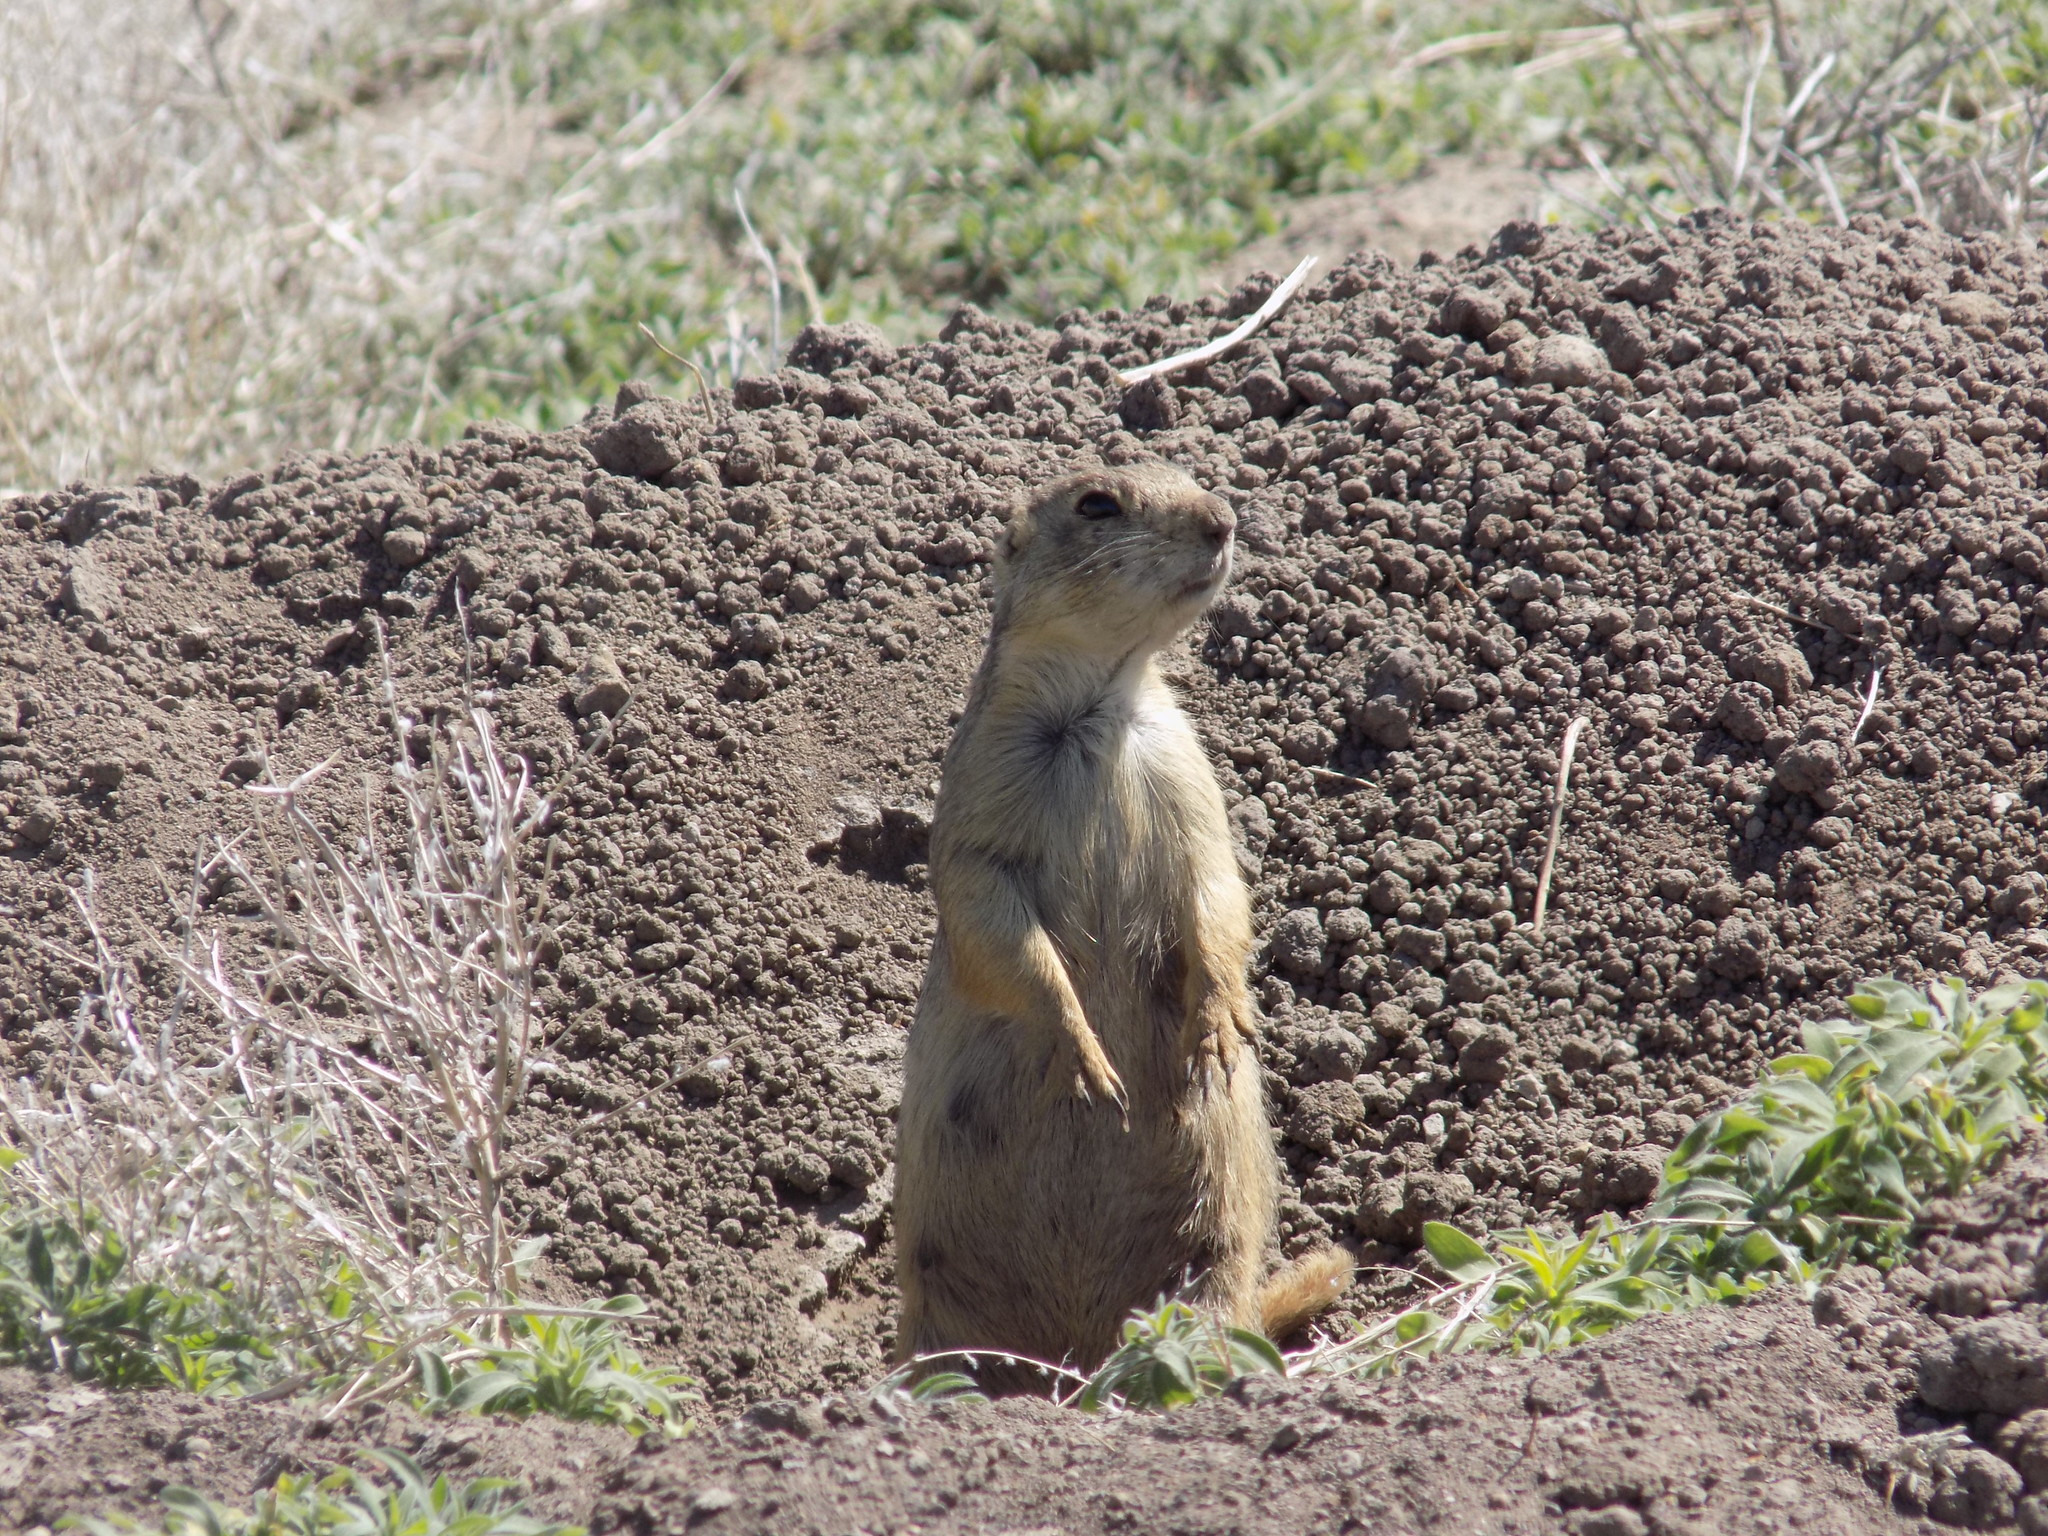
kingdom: Animalia
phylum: Chordata
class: Mammalia
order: Rodentia
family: Sciuridae
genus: Cynomys
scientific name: Cynomys gunnisoni
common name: Gunnison's prairie dog
